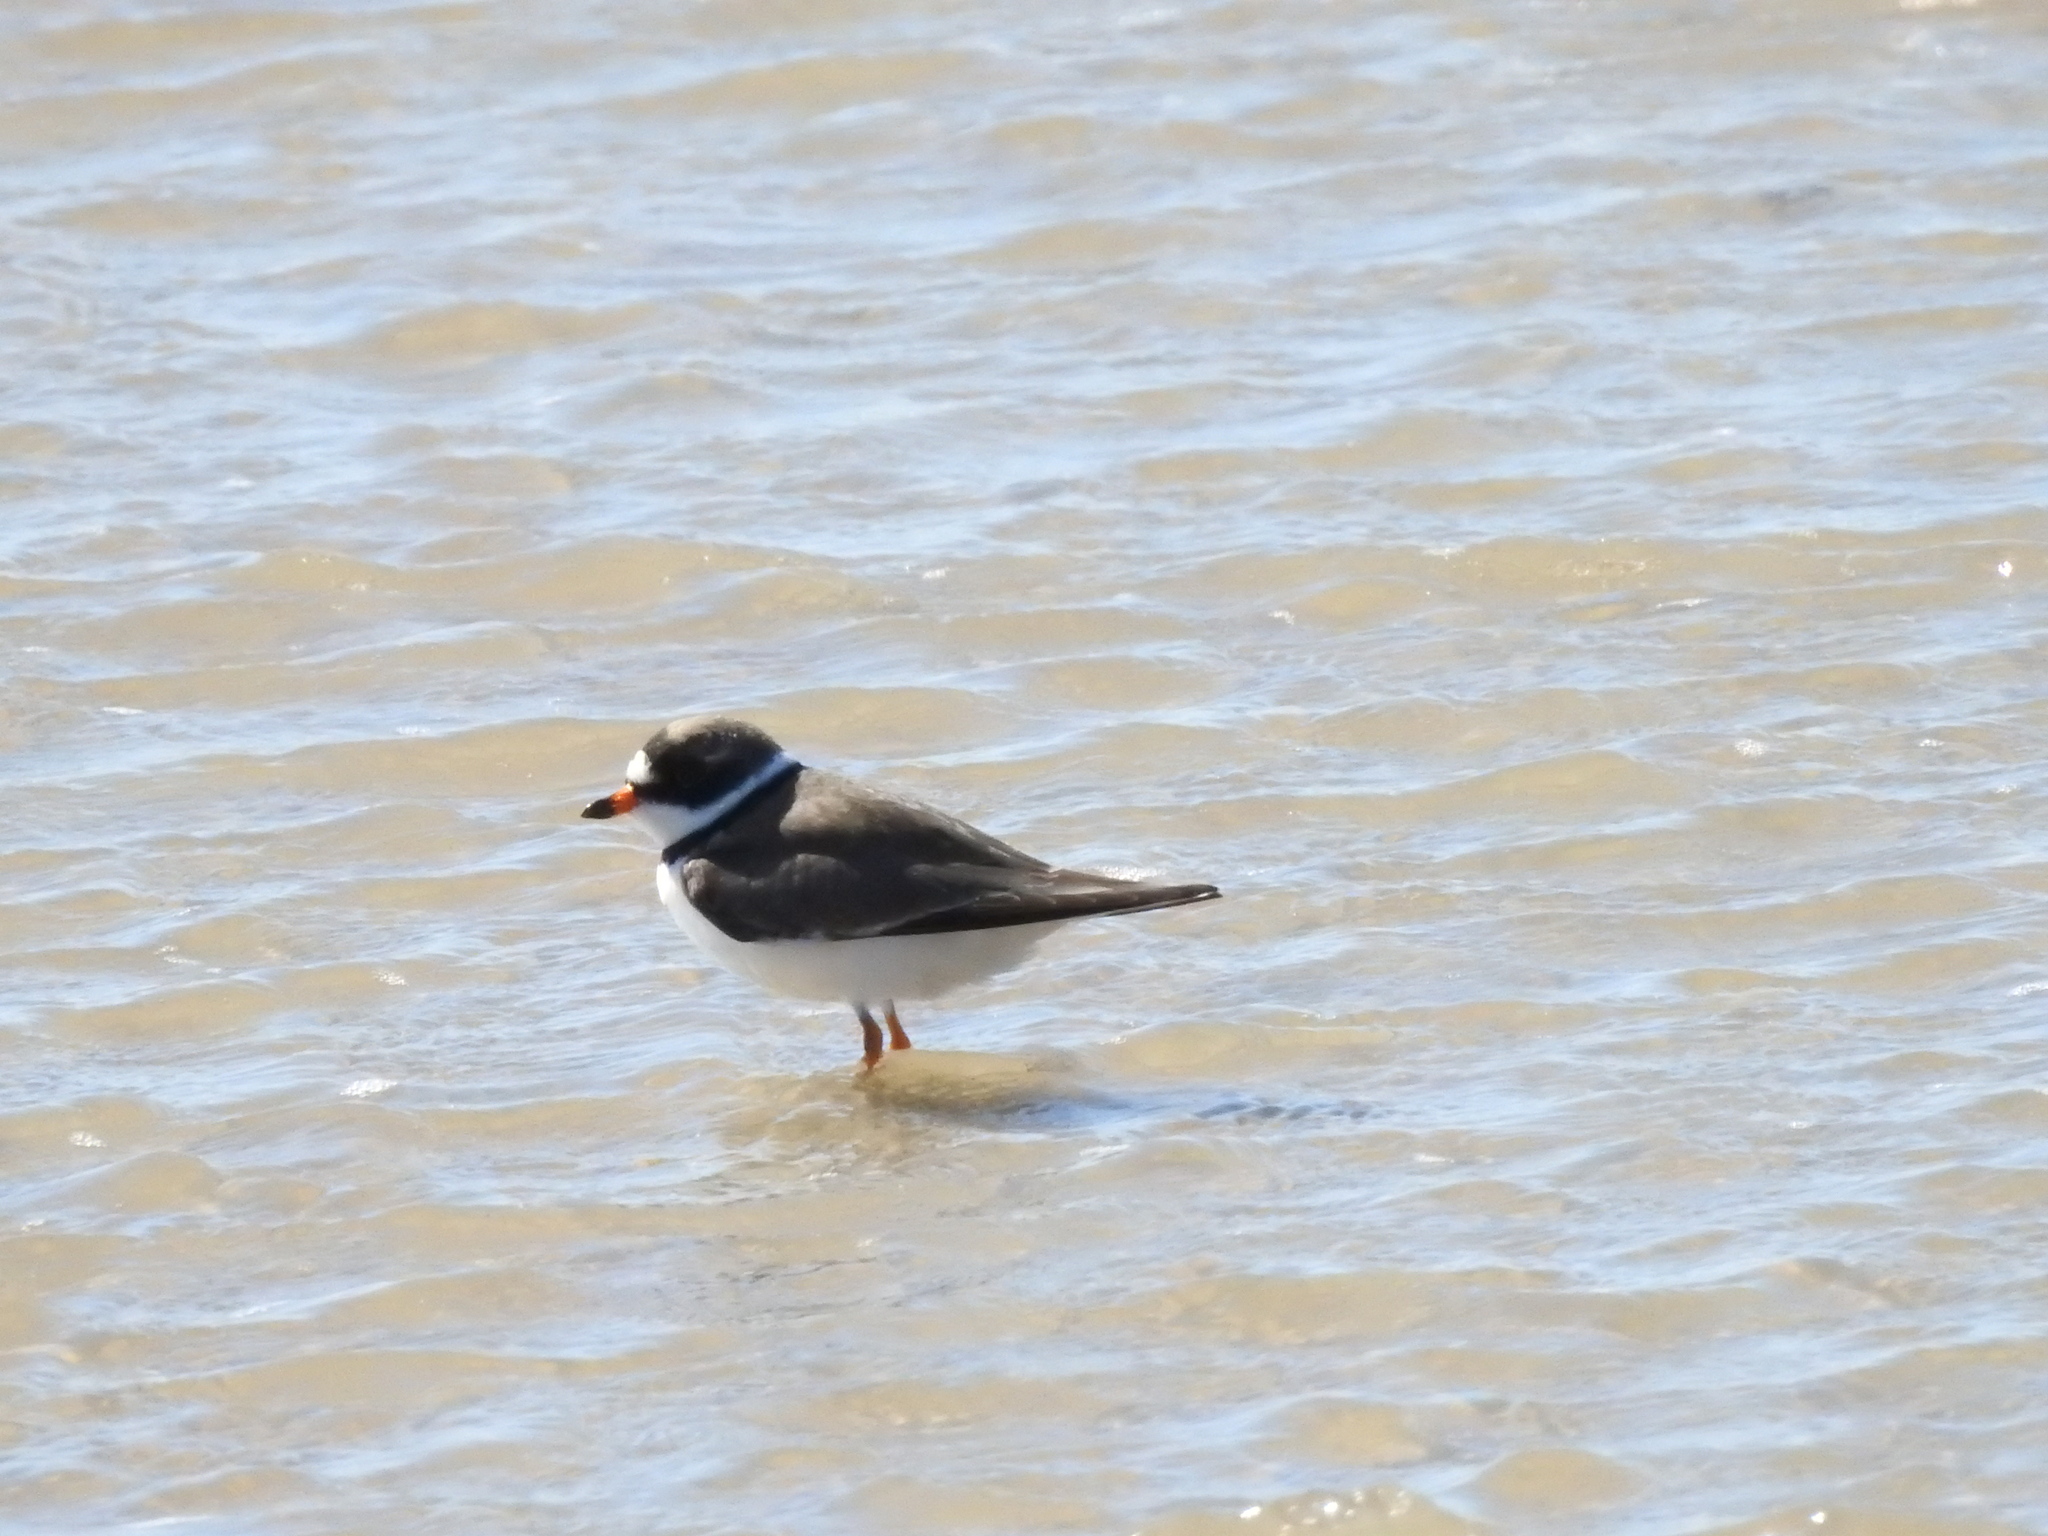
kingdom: Animalia
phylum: Chordata
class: Aves
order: Charadriiformes
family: Charadriidae
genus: Charadrius
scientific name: Charadrius semipalmatus
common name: Semipalmated plover
